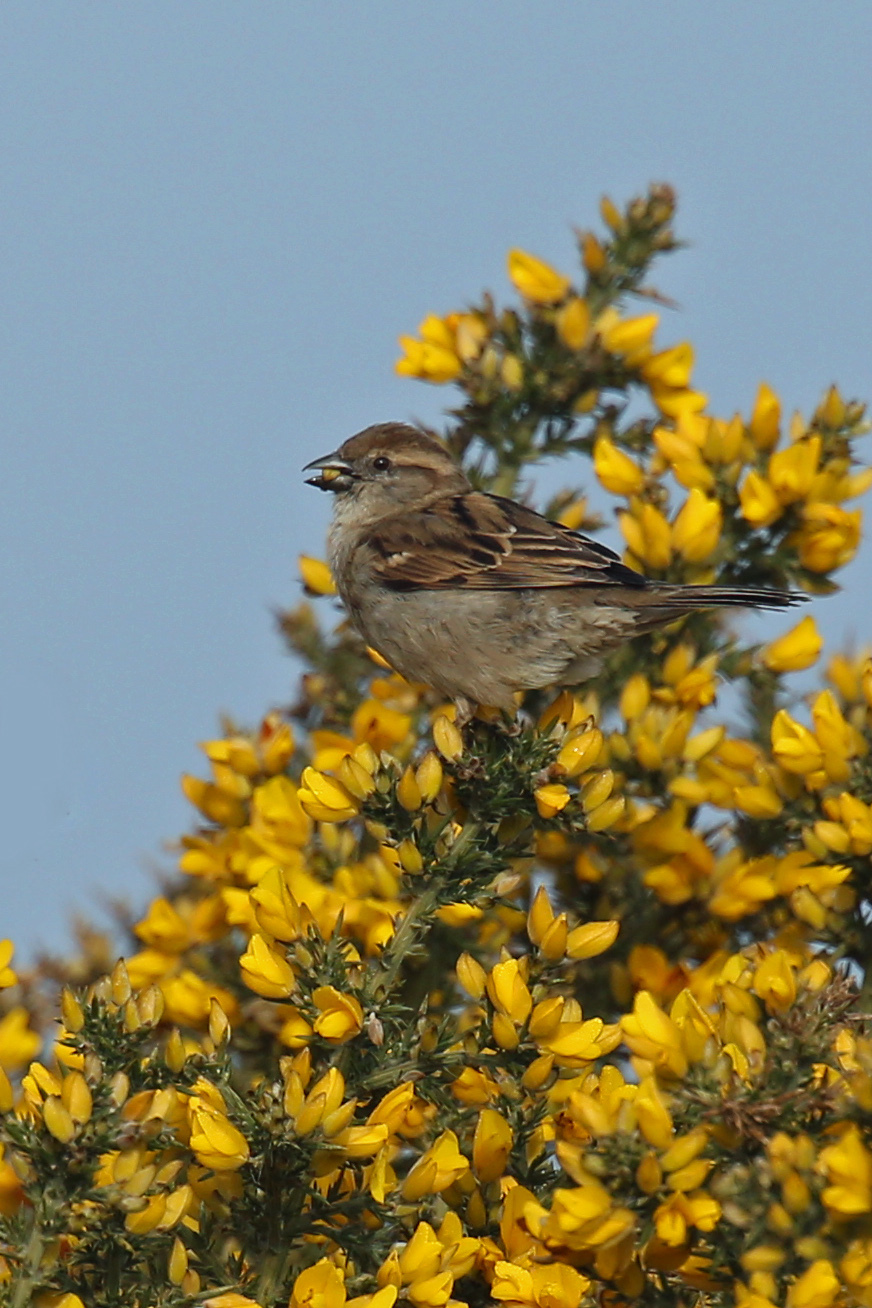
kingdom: Animalia
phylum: Chordata
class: Aves
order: Passeriformes
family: Passeridae
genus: Passer
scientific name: Passer domesticus
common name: House sparrow
